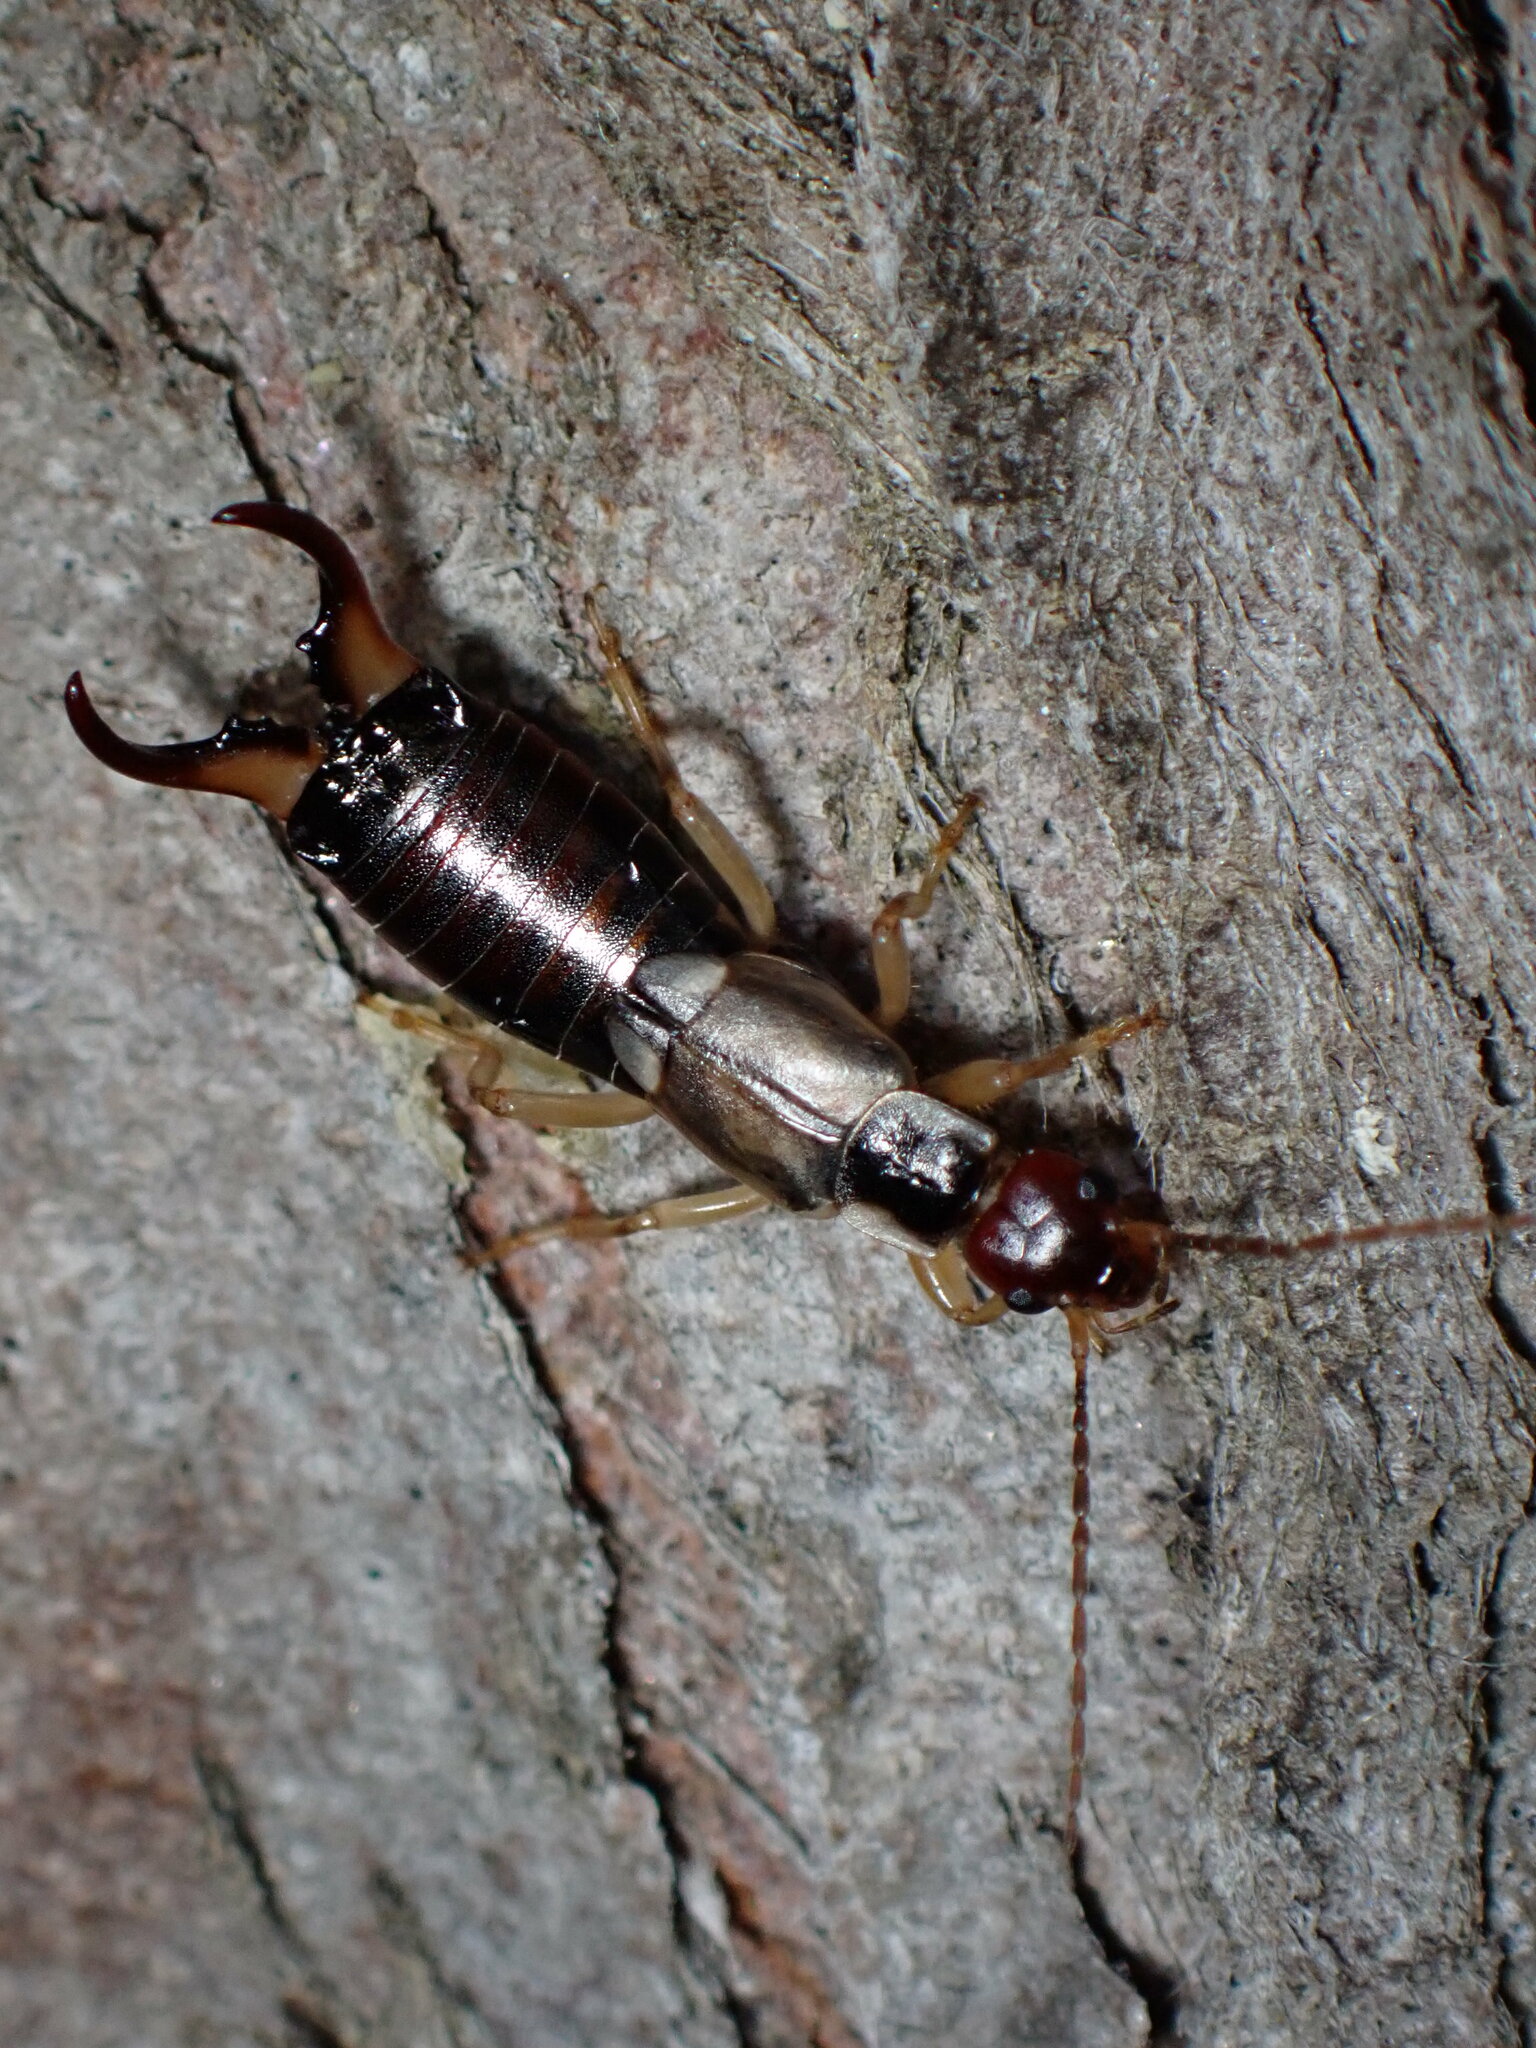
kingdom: Animalia
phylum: Arthropoda
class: Insecta
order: Dermaptera
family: Forficulidae
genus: Forficula
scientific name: Forficula dentata
